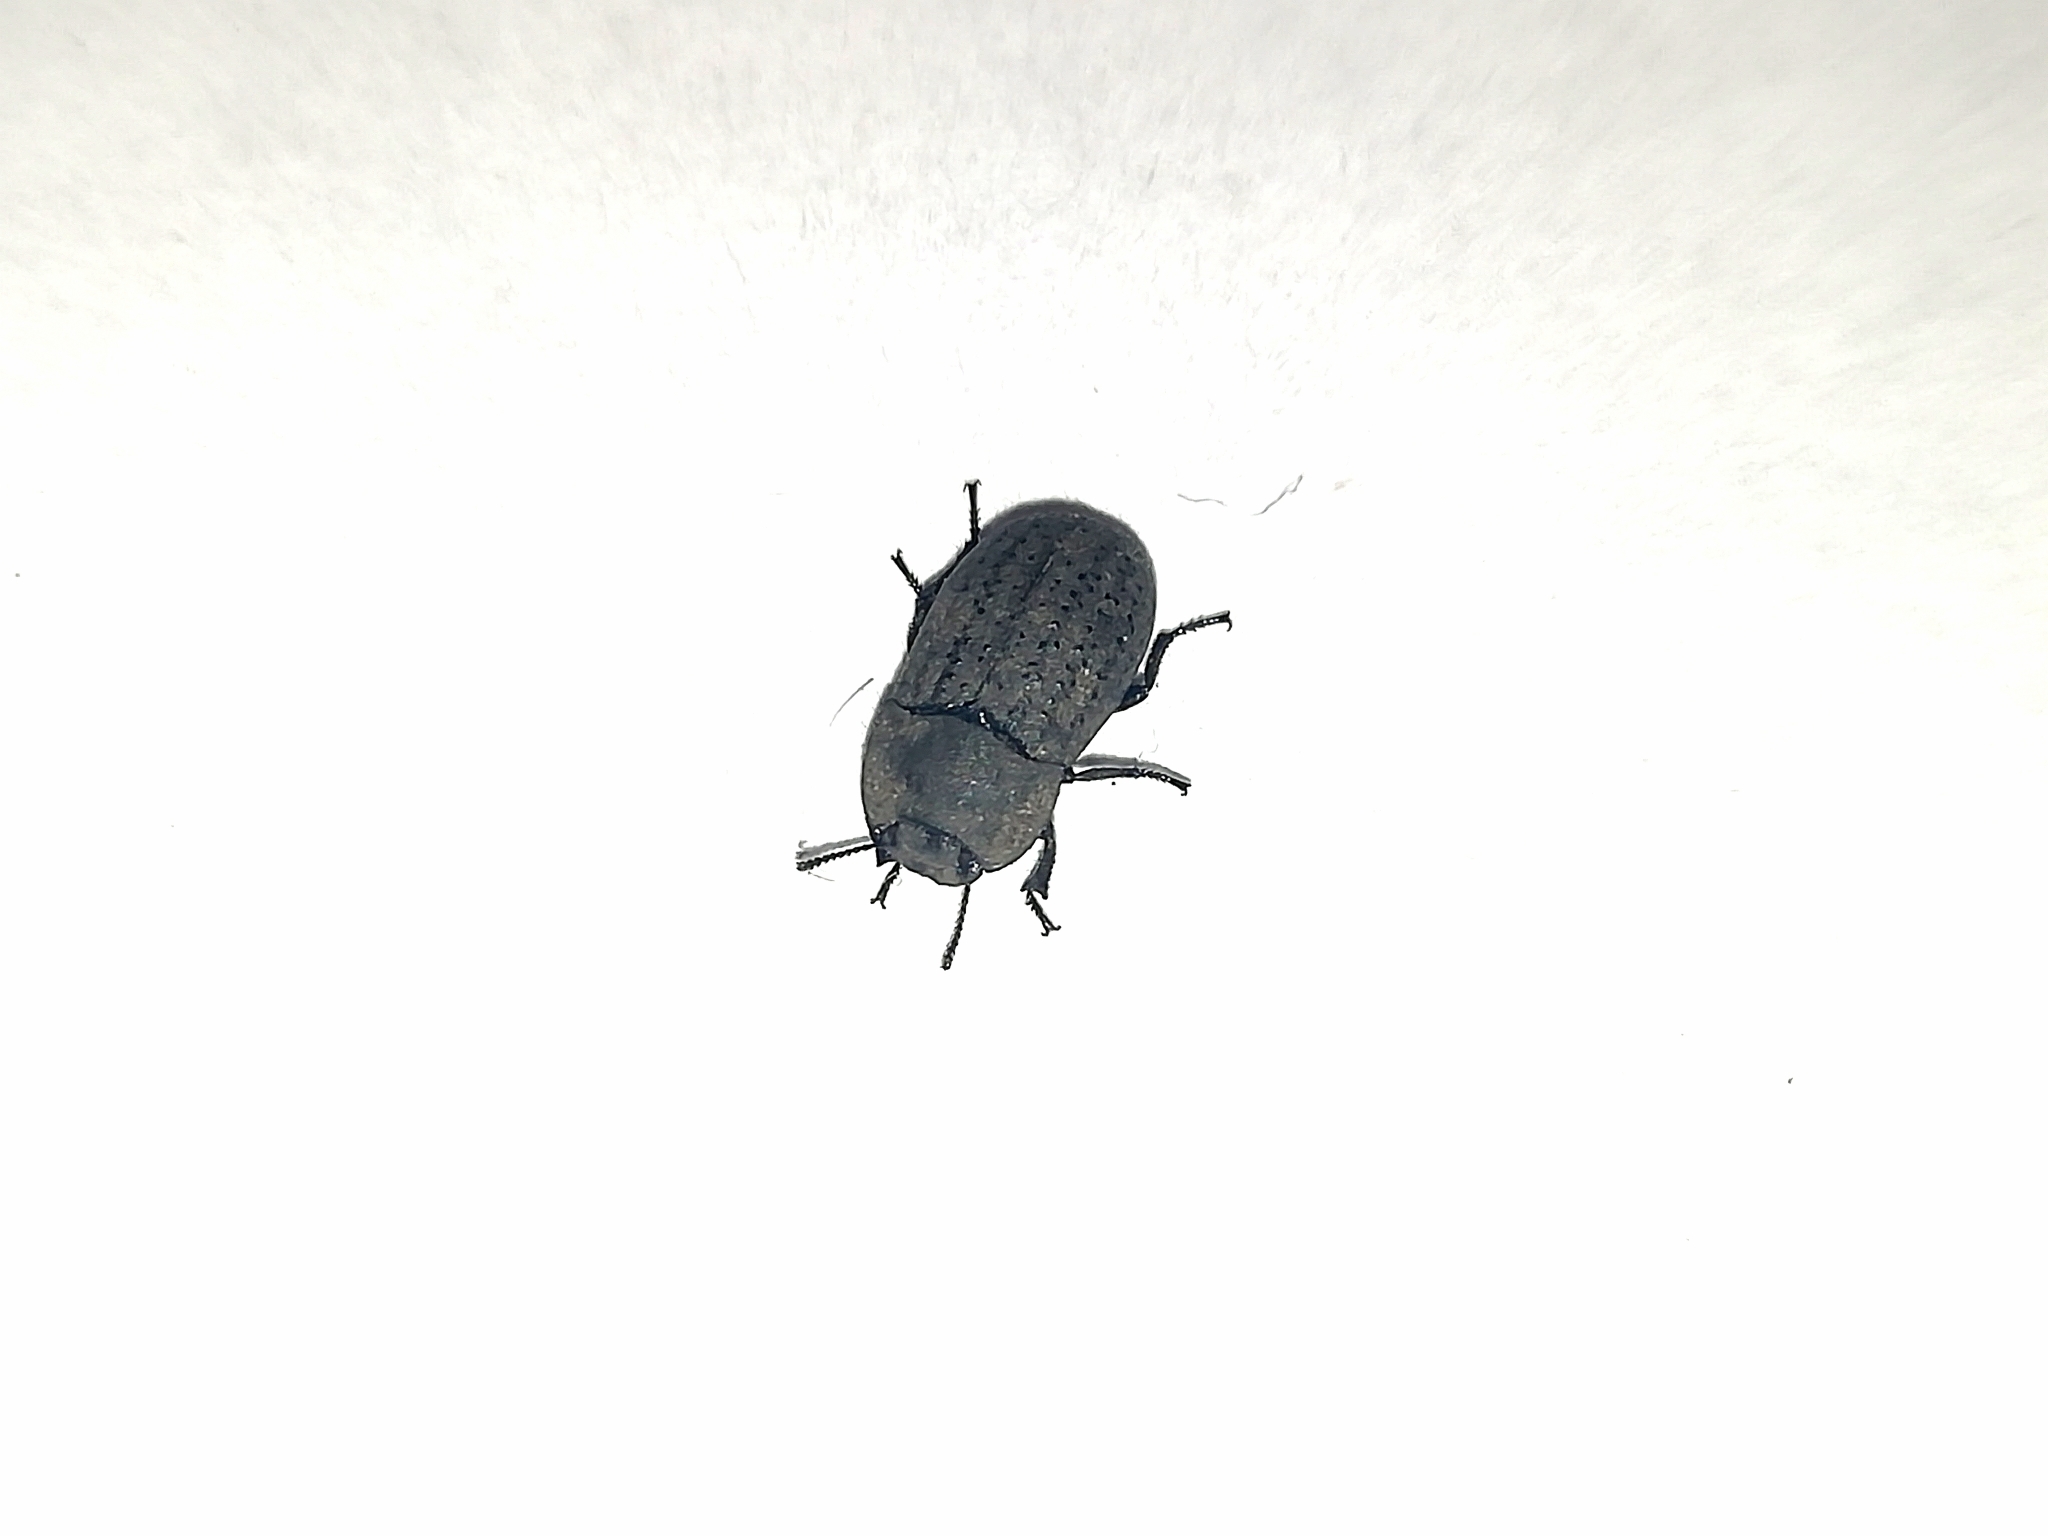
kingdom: Animalia
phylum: Arthropoda
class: Insecta
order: Coleoptera
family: Tenebrionidae
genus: Opatrum
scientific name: Opatrum sabulosum
